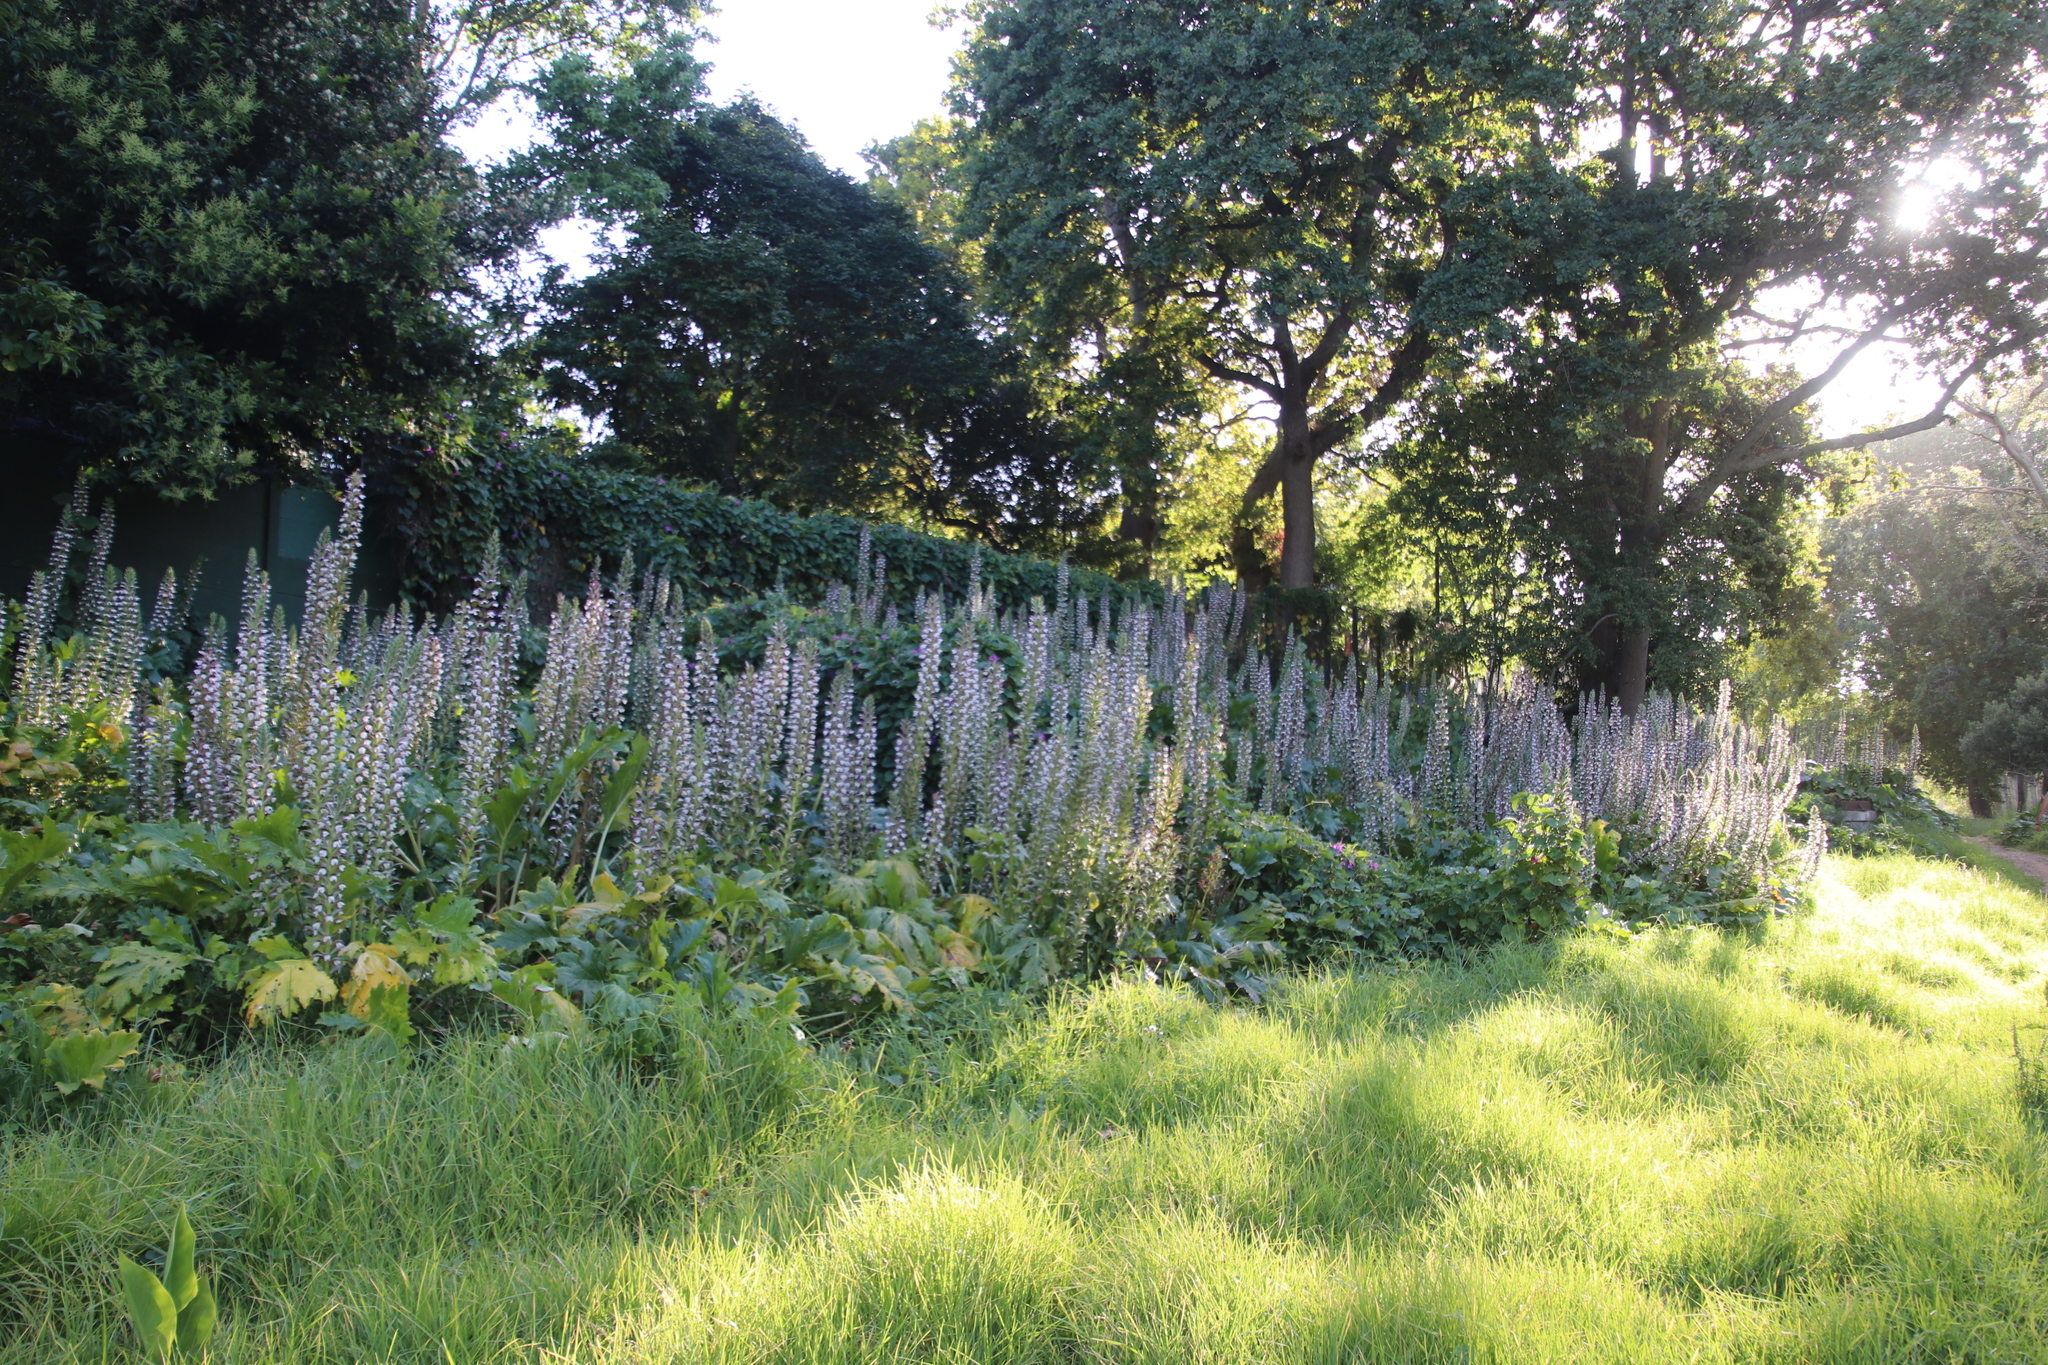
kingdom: Plantae
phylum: Tracheophyta
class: Magnoliopsida
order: Lamiales
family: Acanthaceae
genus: Acanthus
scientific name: Acanthus mollis
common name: Bear's-breech
